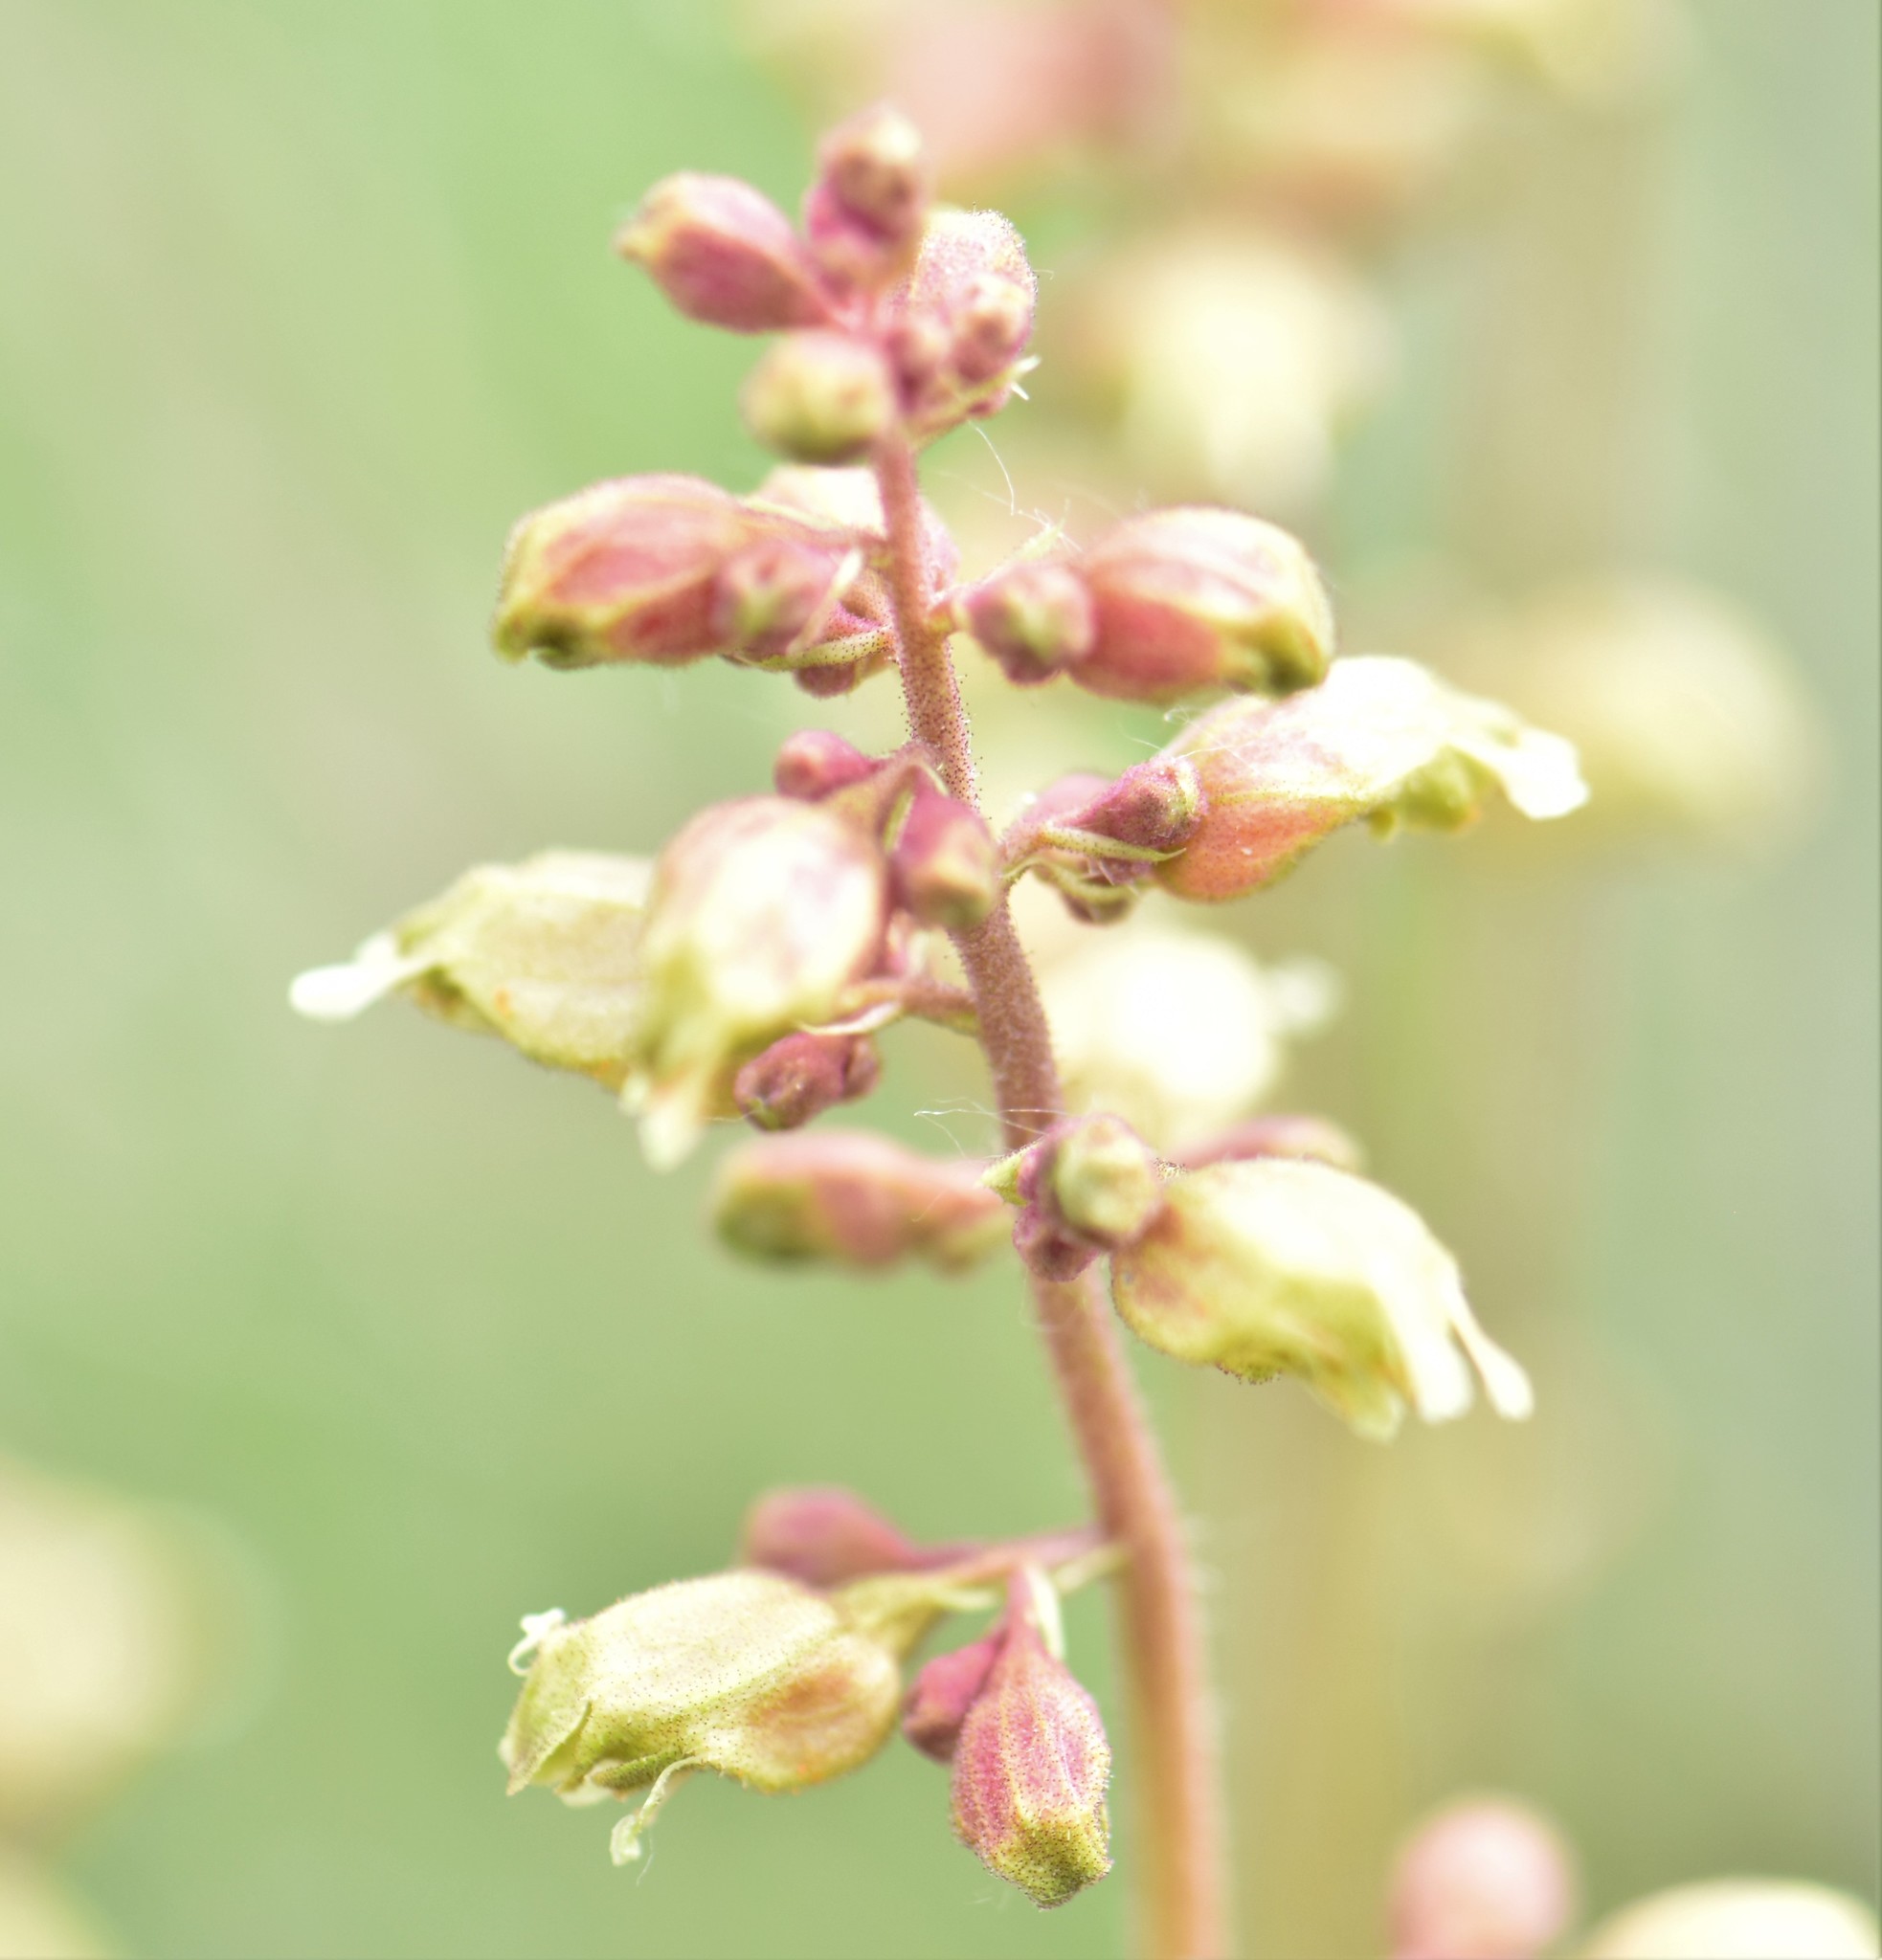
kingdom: Plantae
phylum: Tracheophyta
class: Magnoliopsida
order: Saxifragales
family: Saxifragaceae
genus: Heuchera
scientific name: Heuchera richardsonii
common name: Richardson's alumroot
